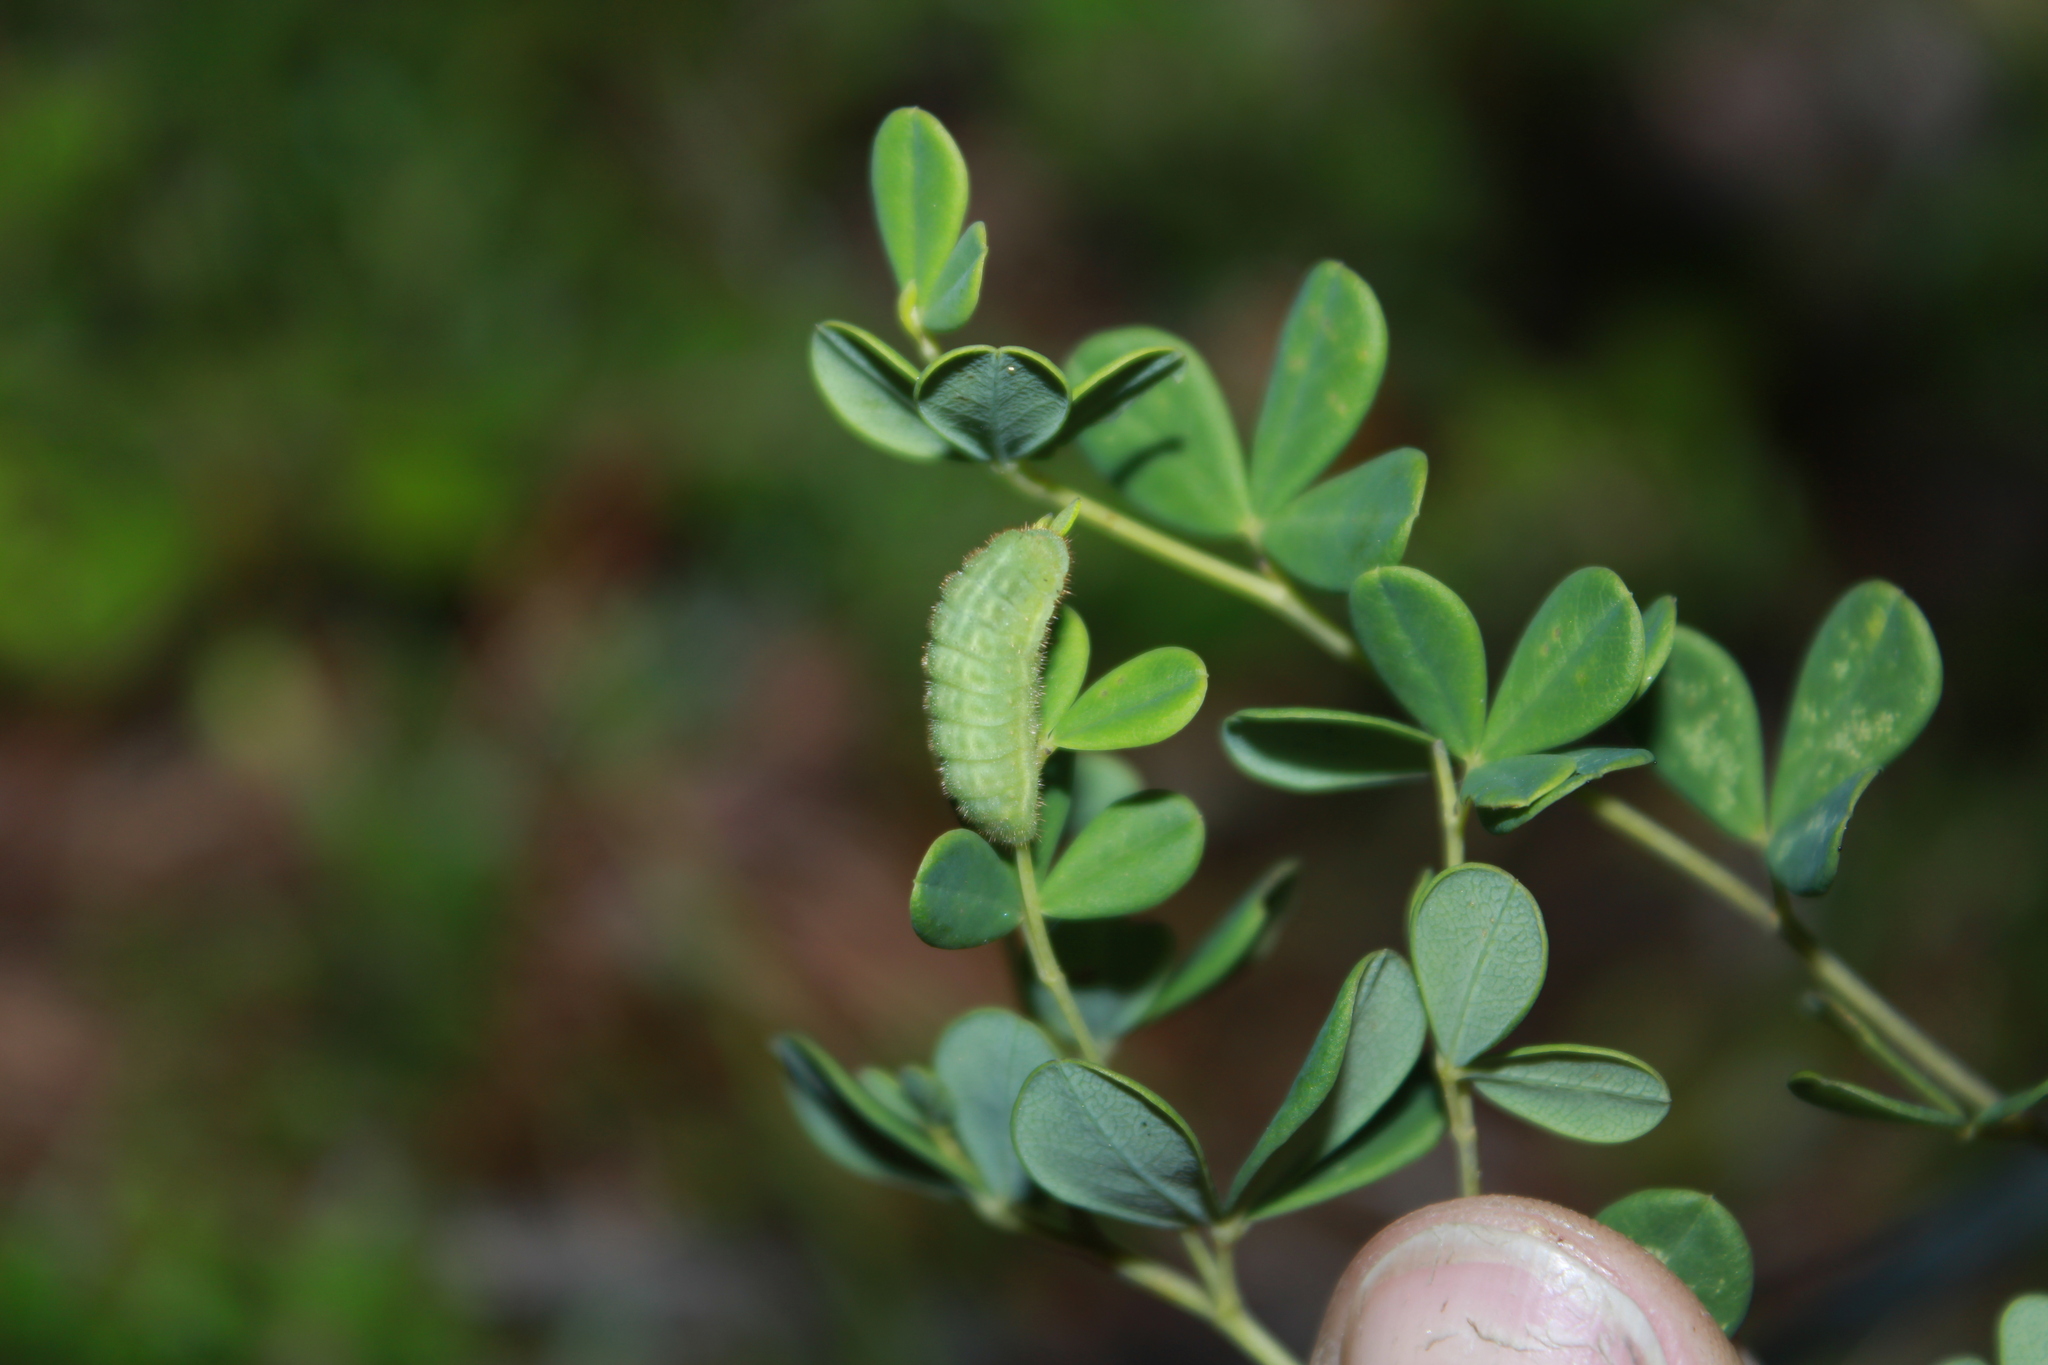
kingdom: Animalia
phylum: Arthropoda
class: Insecta
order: Lepidoptera
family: Lycaenidae
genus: Thecla
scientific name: Thecla irus
